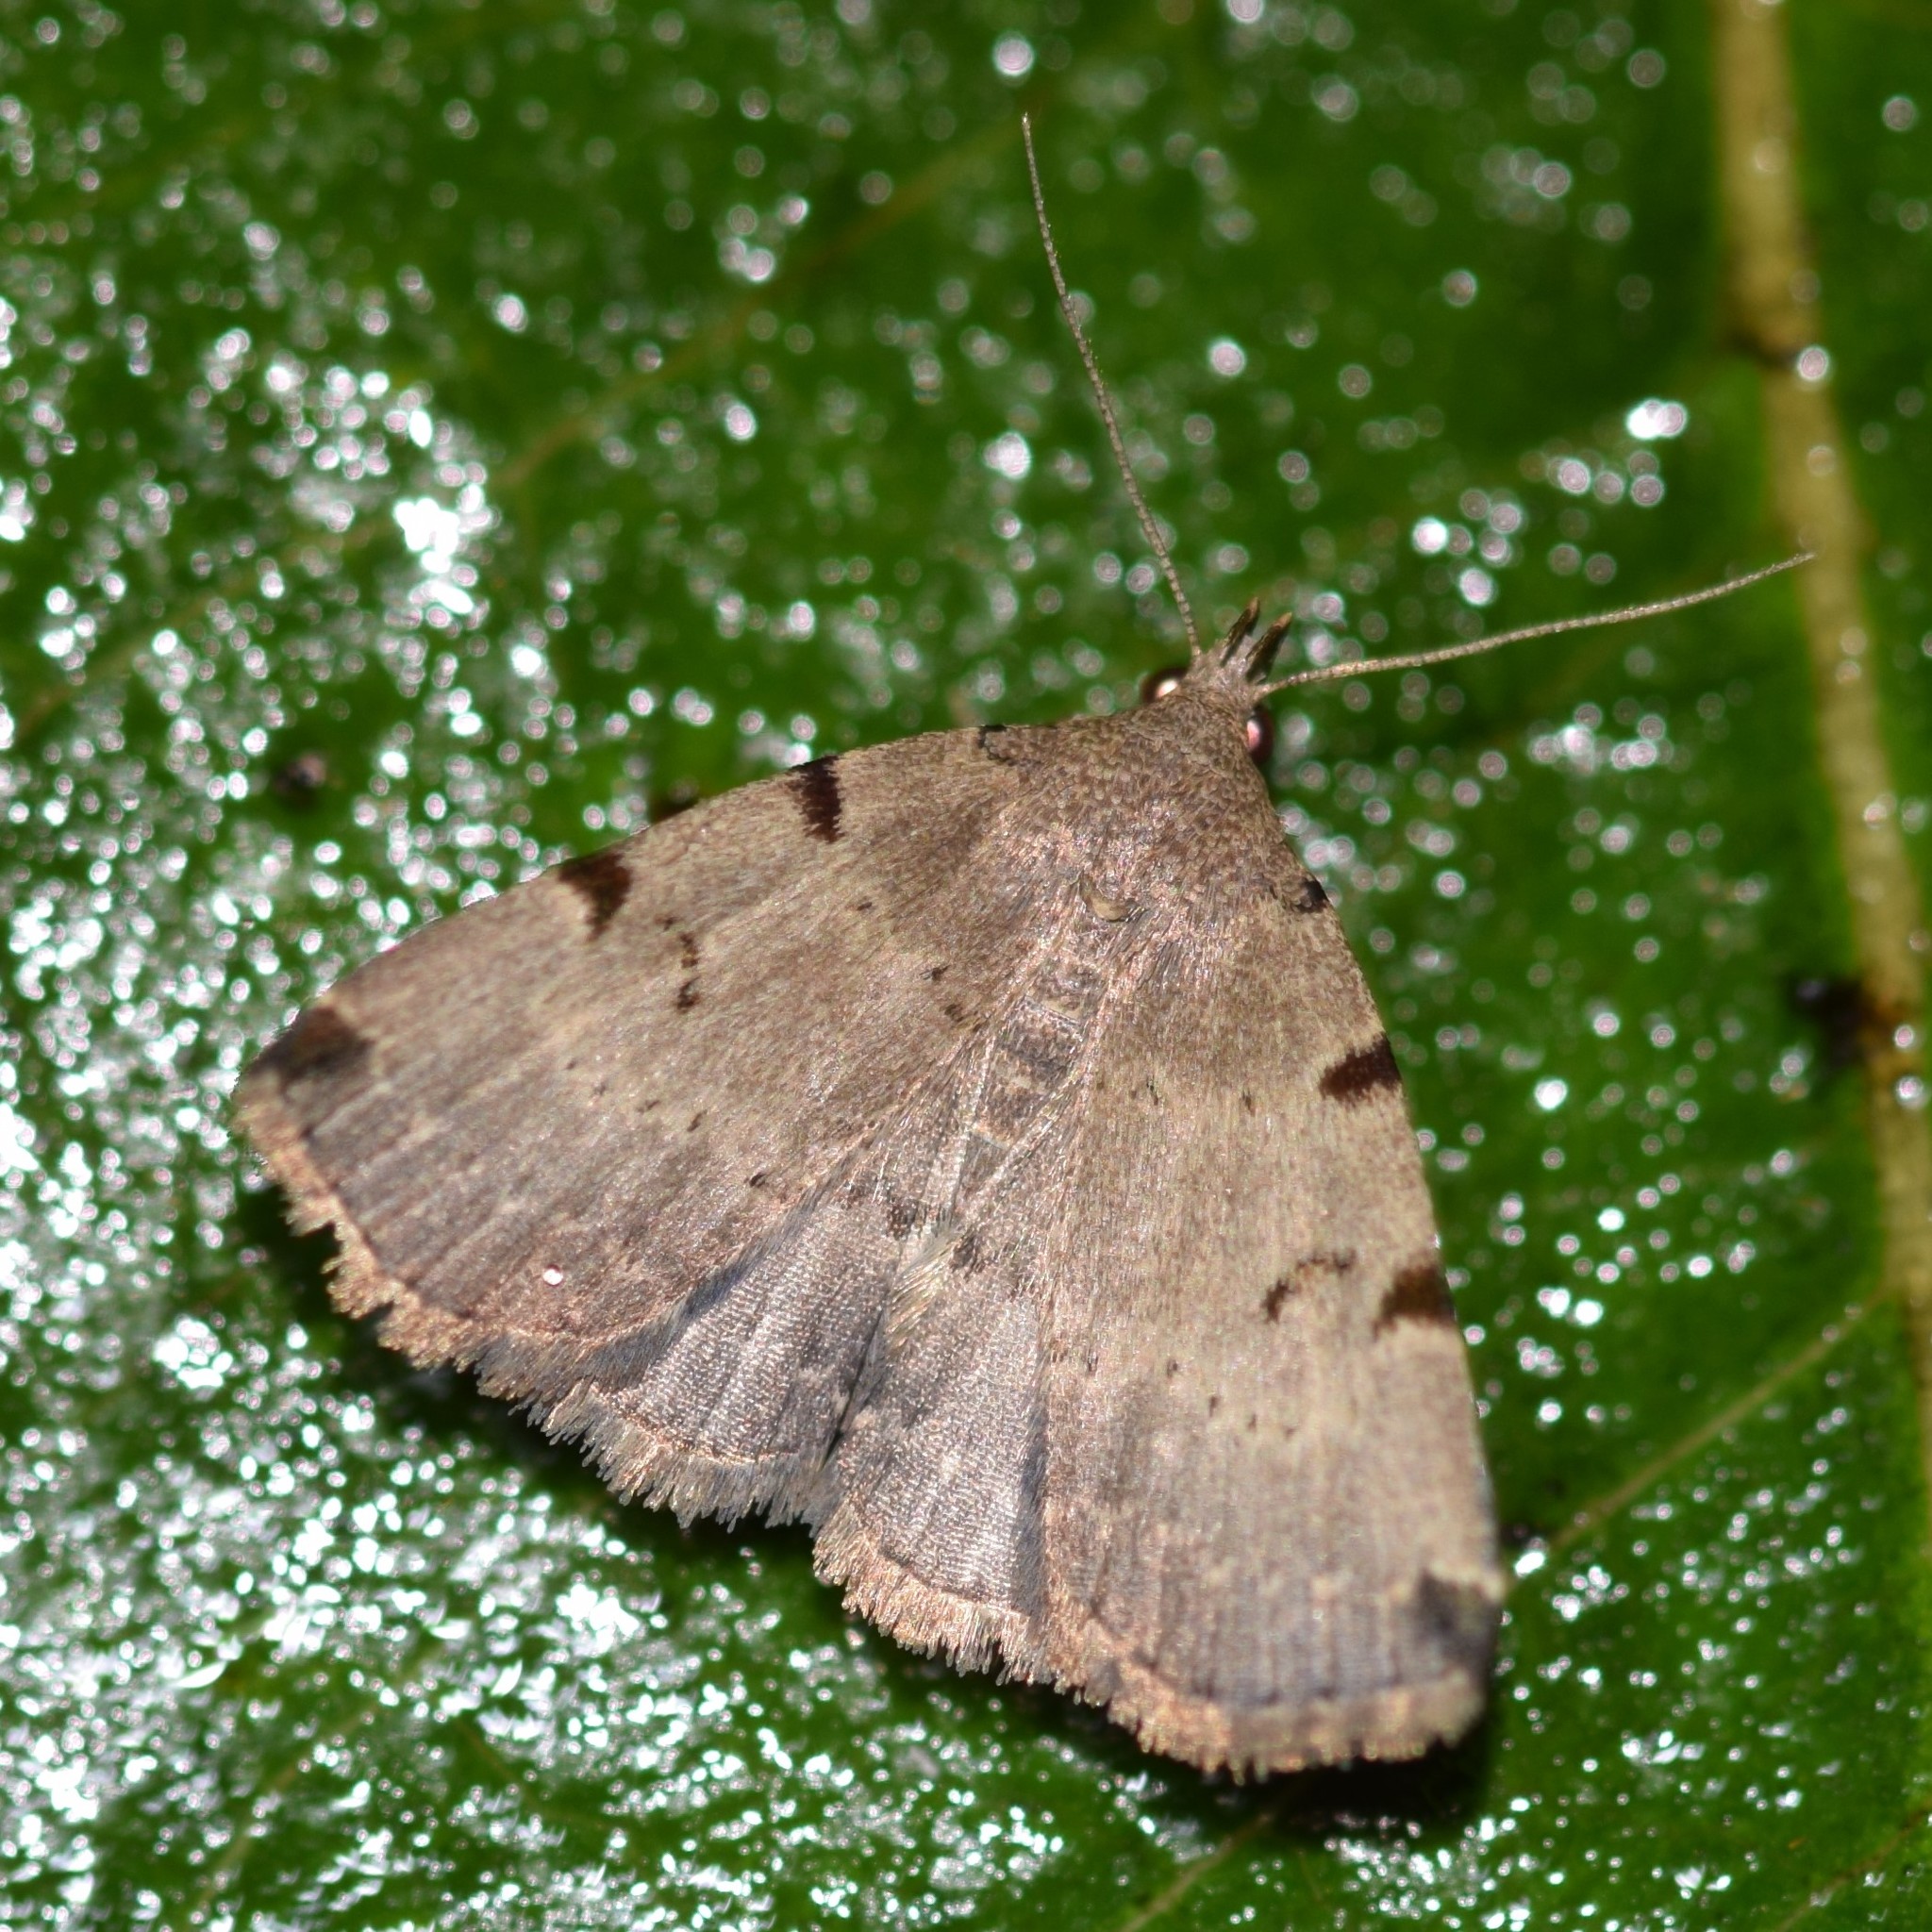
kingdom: Animalia
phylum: Arthropoda
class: Insecta
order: Lepidoptera
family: Erebidae
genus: Zanclognatha
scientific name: Zanclognatha lituralis
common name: Lettered fan-foot
